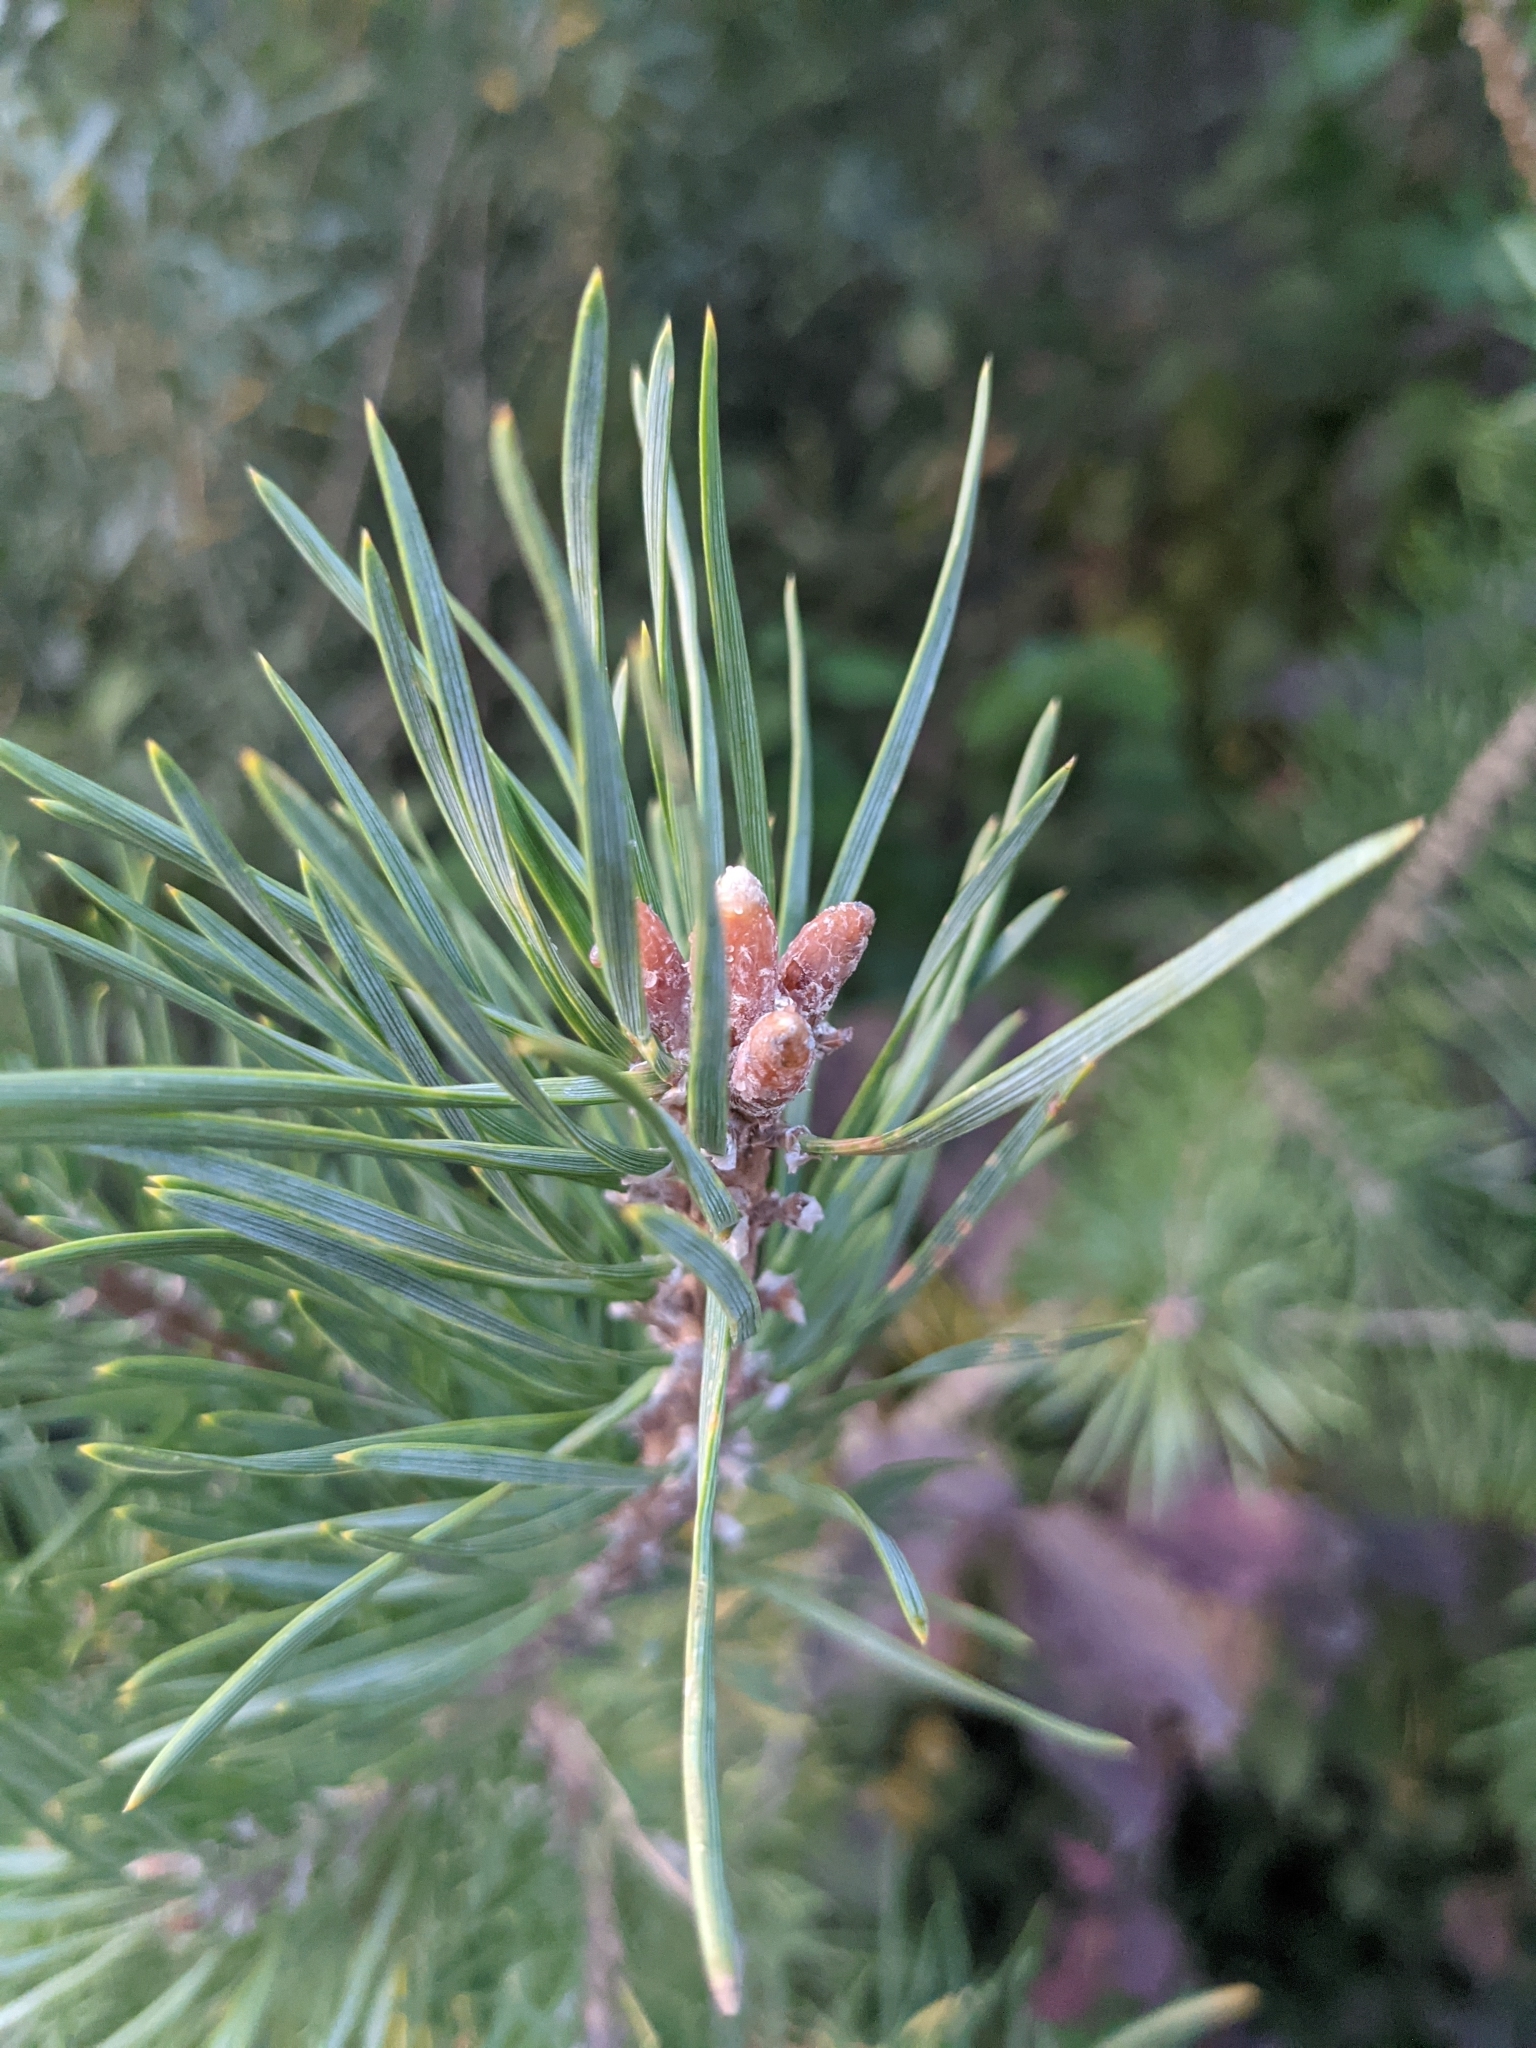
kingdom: Plantae
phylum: Tracheophyta
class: Pinopsida
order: Pinales
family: Pinaceae
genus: Pinus
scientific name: Pinus sylvestris
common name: Scots pine
